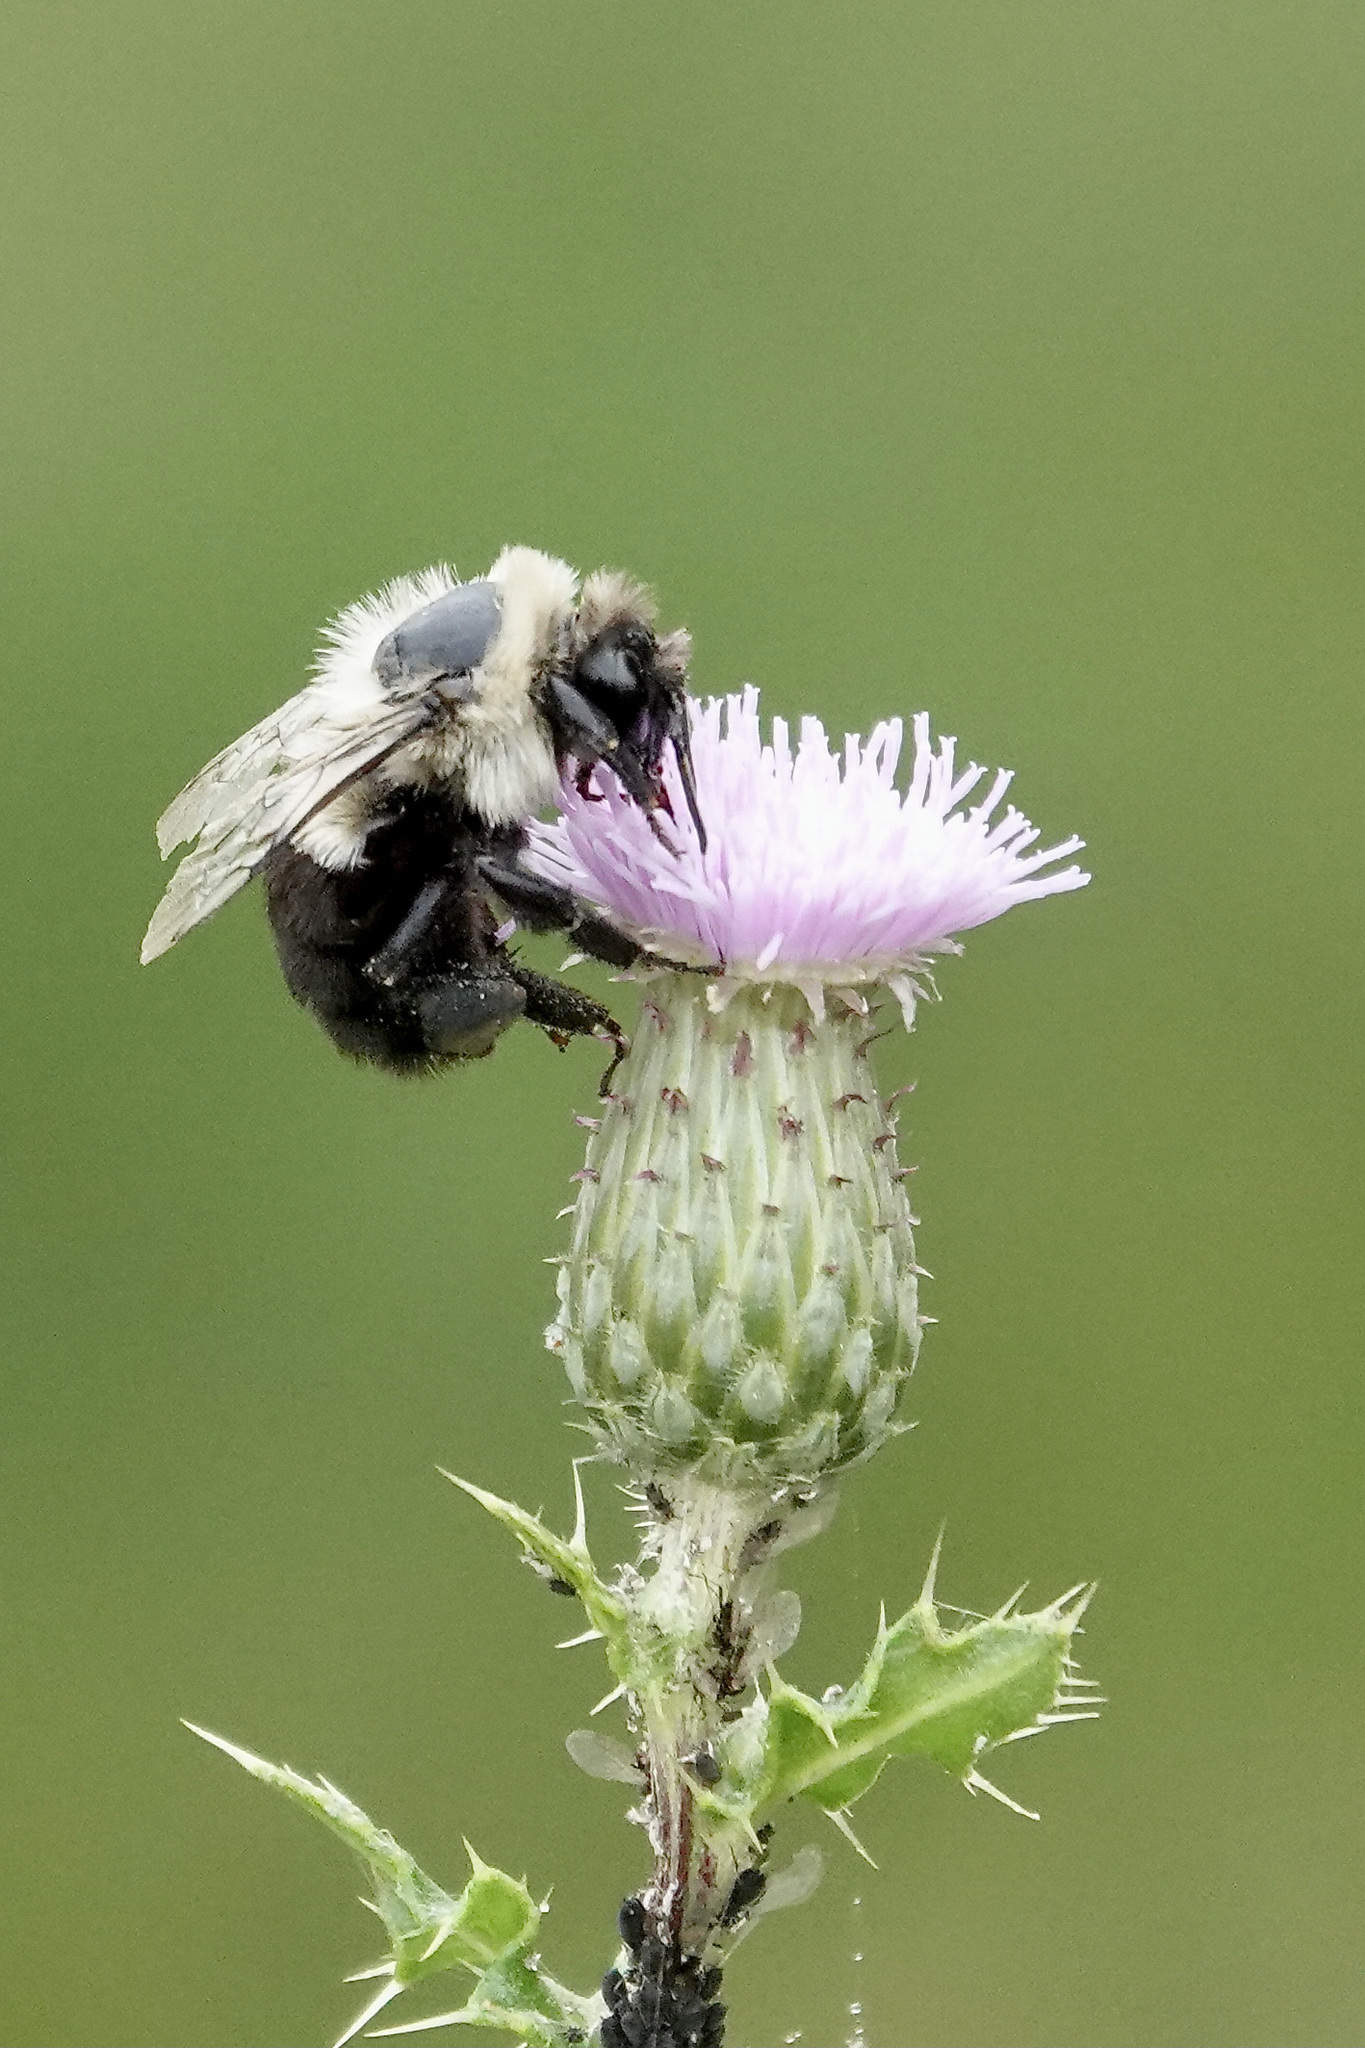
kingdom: Animalia
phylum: Arthropoda
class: Insecta
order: Hymenoptera
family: Apidae
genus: Bombus
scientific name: Bombus impatiens
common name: Common eastern bumble bee
